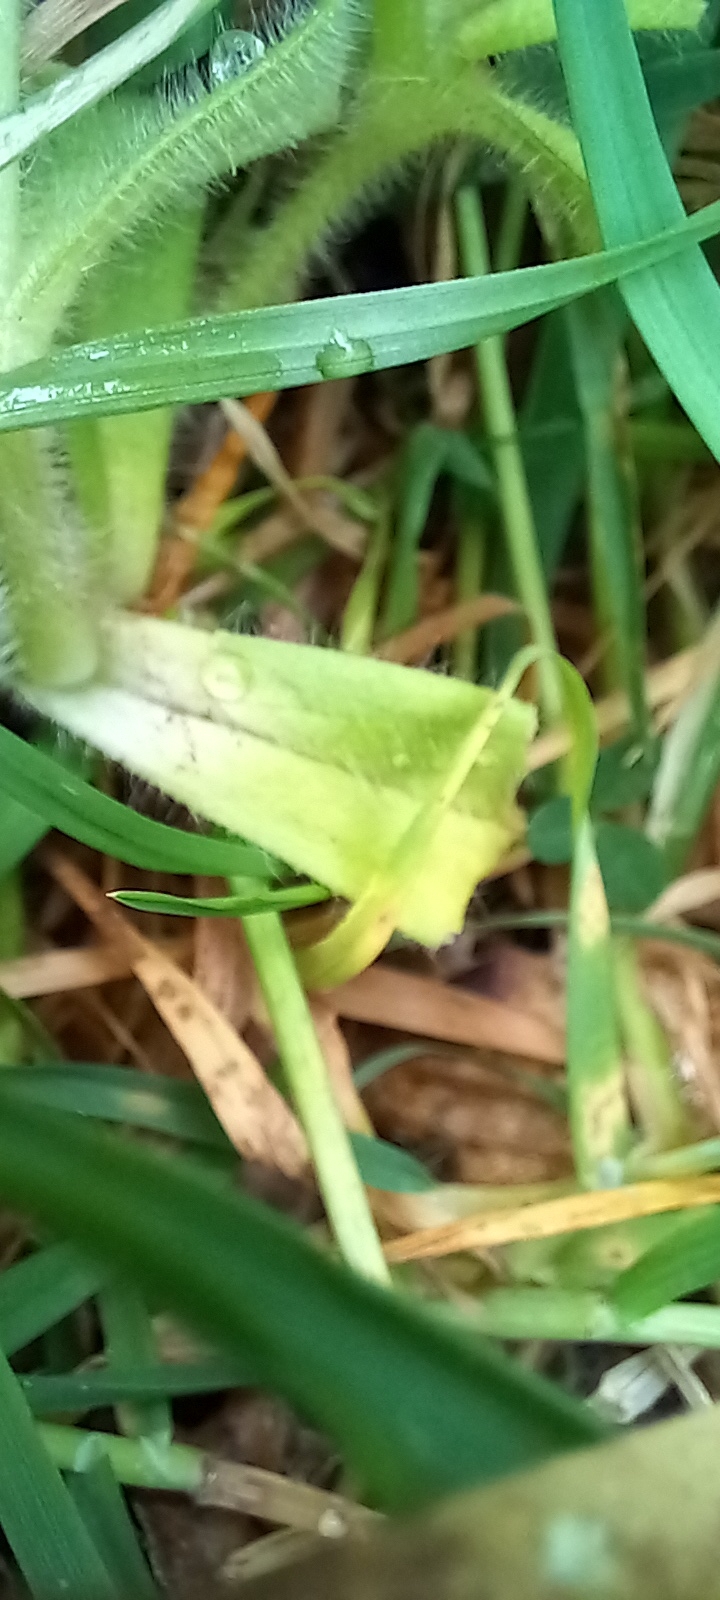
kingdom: Plantae
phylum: Tracheophyta
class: Magnoliopsida
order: Caryophyllales
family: Caryophyllaceae
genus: Cerastium
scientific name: Cerastium glomeratum
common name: Sticky chickweed
